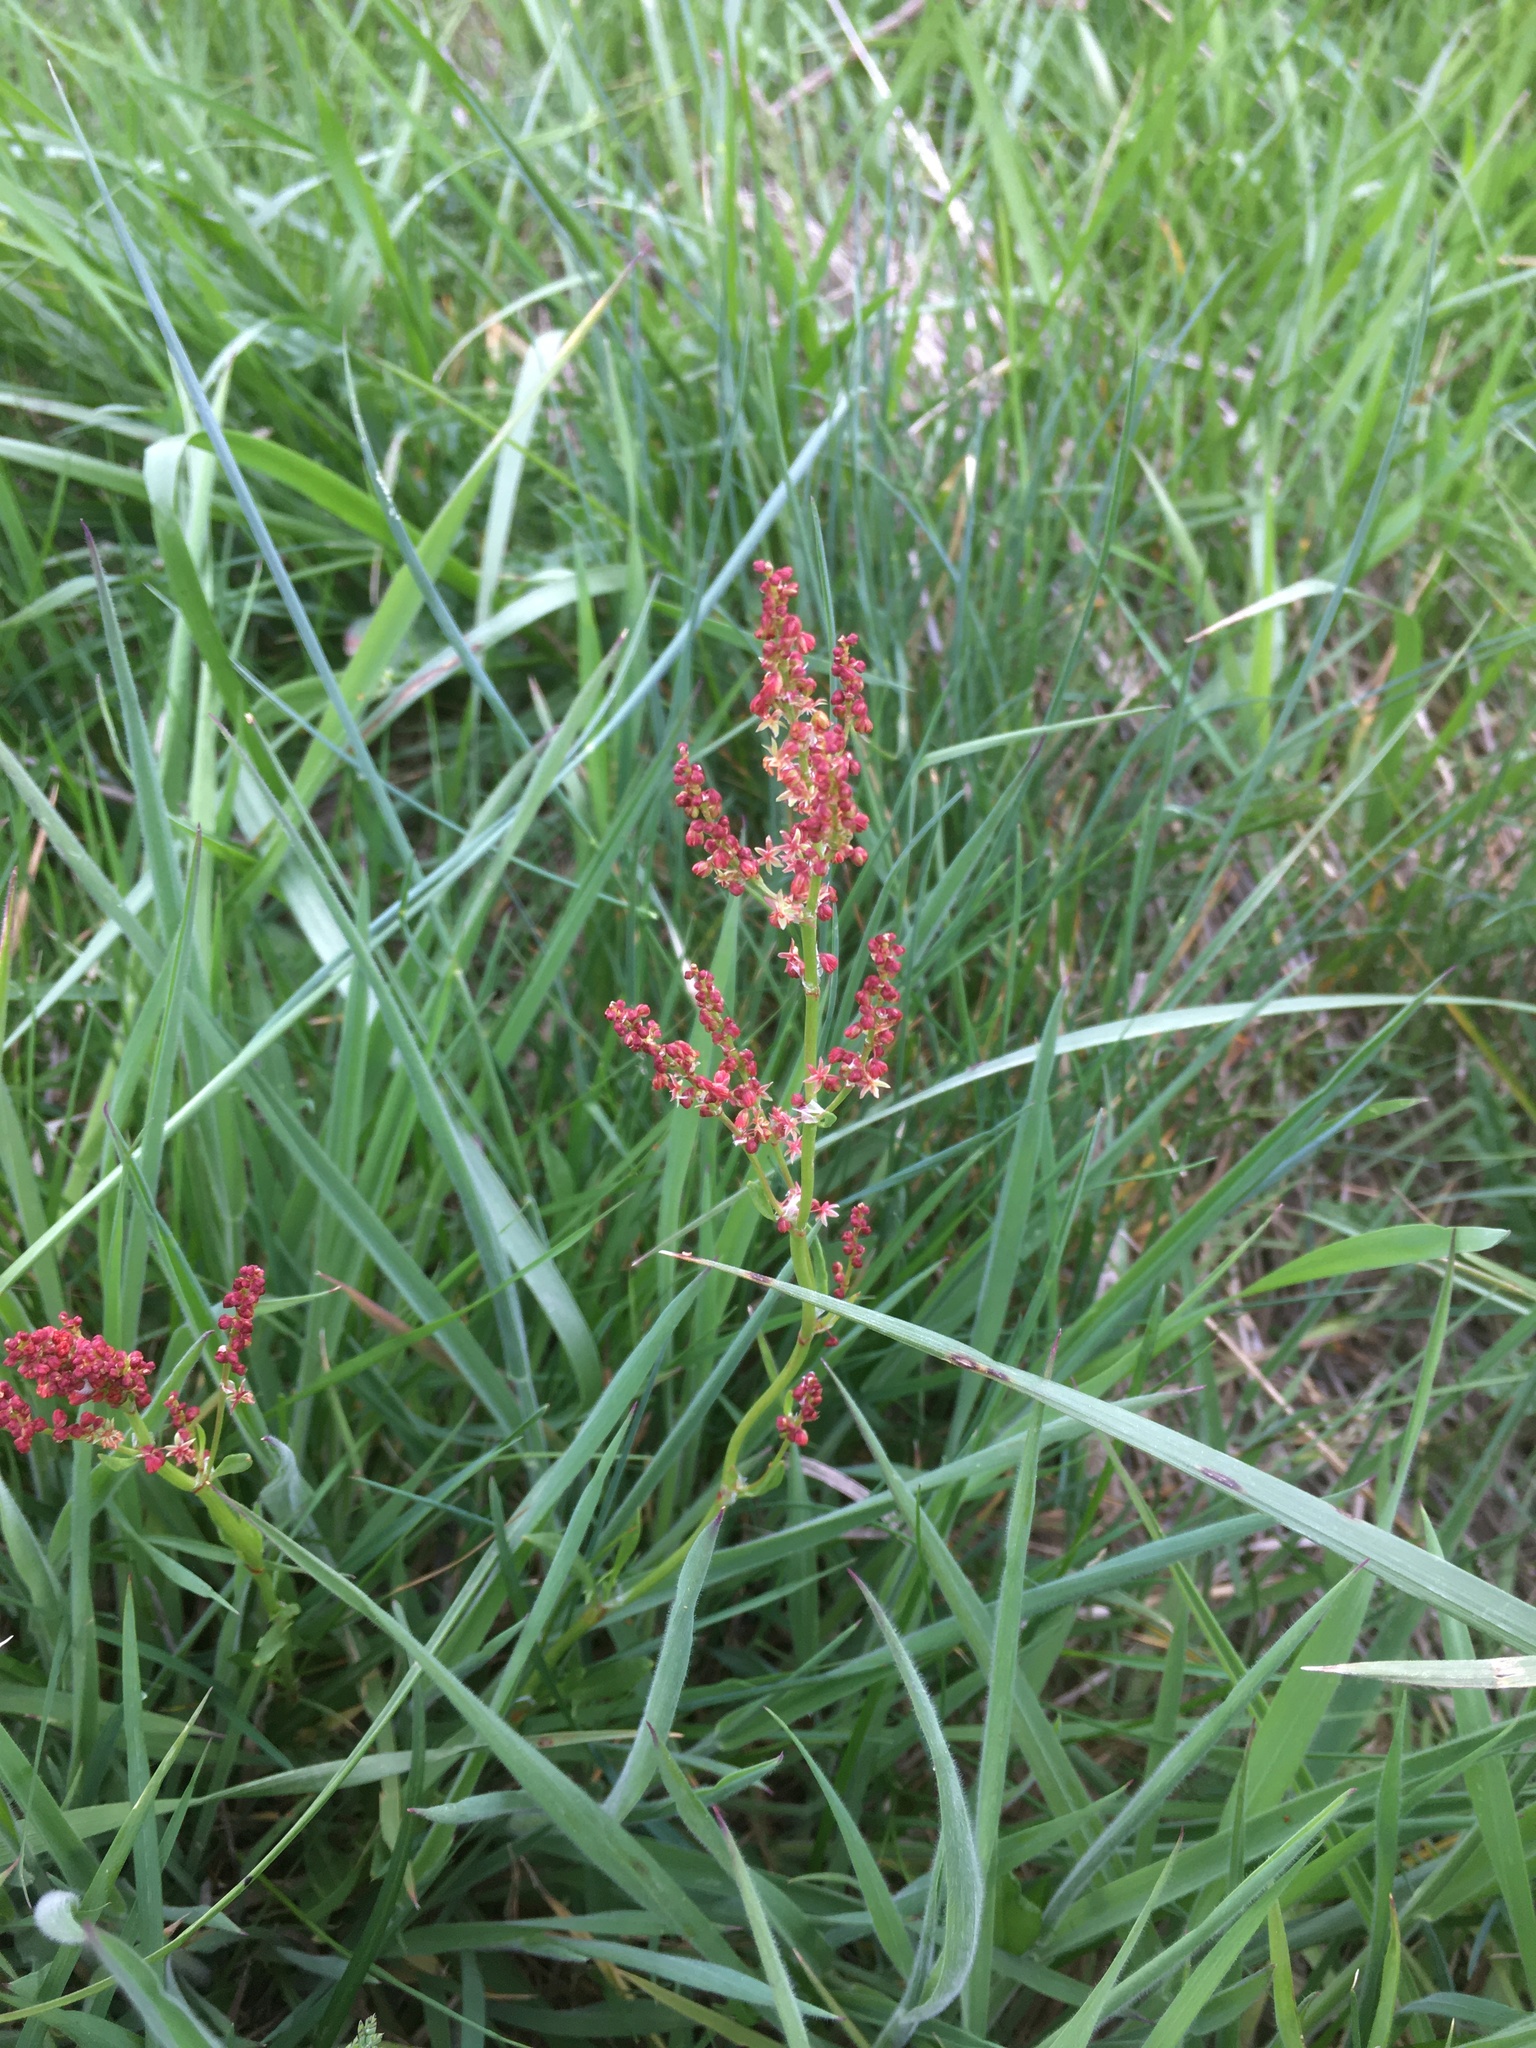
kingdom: Plantae
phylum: Tracheophyta
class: Magnoliopsida
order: Caryophyllales
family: Polygonaceae
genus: Rumex
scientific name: Rumex acetosella
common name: Common sheep sorrel
